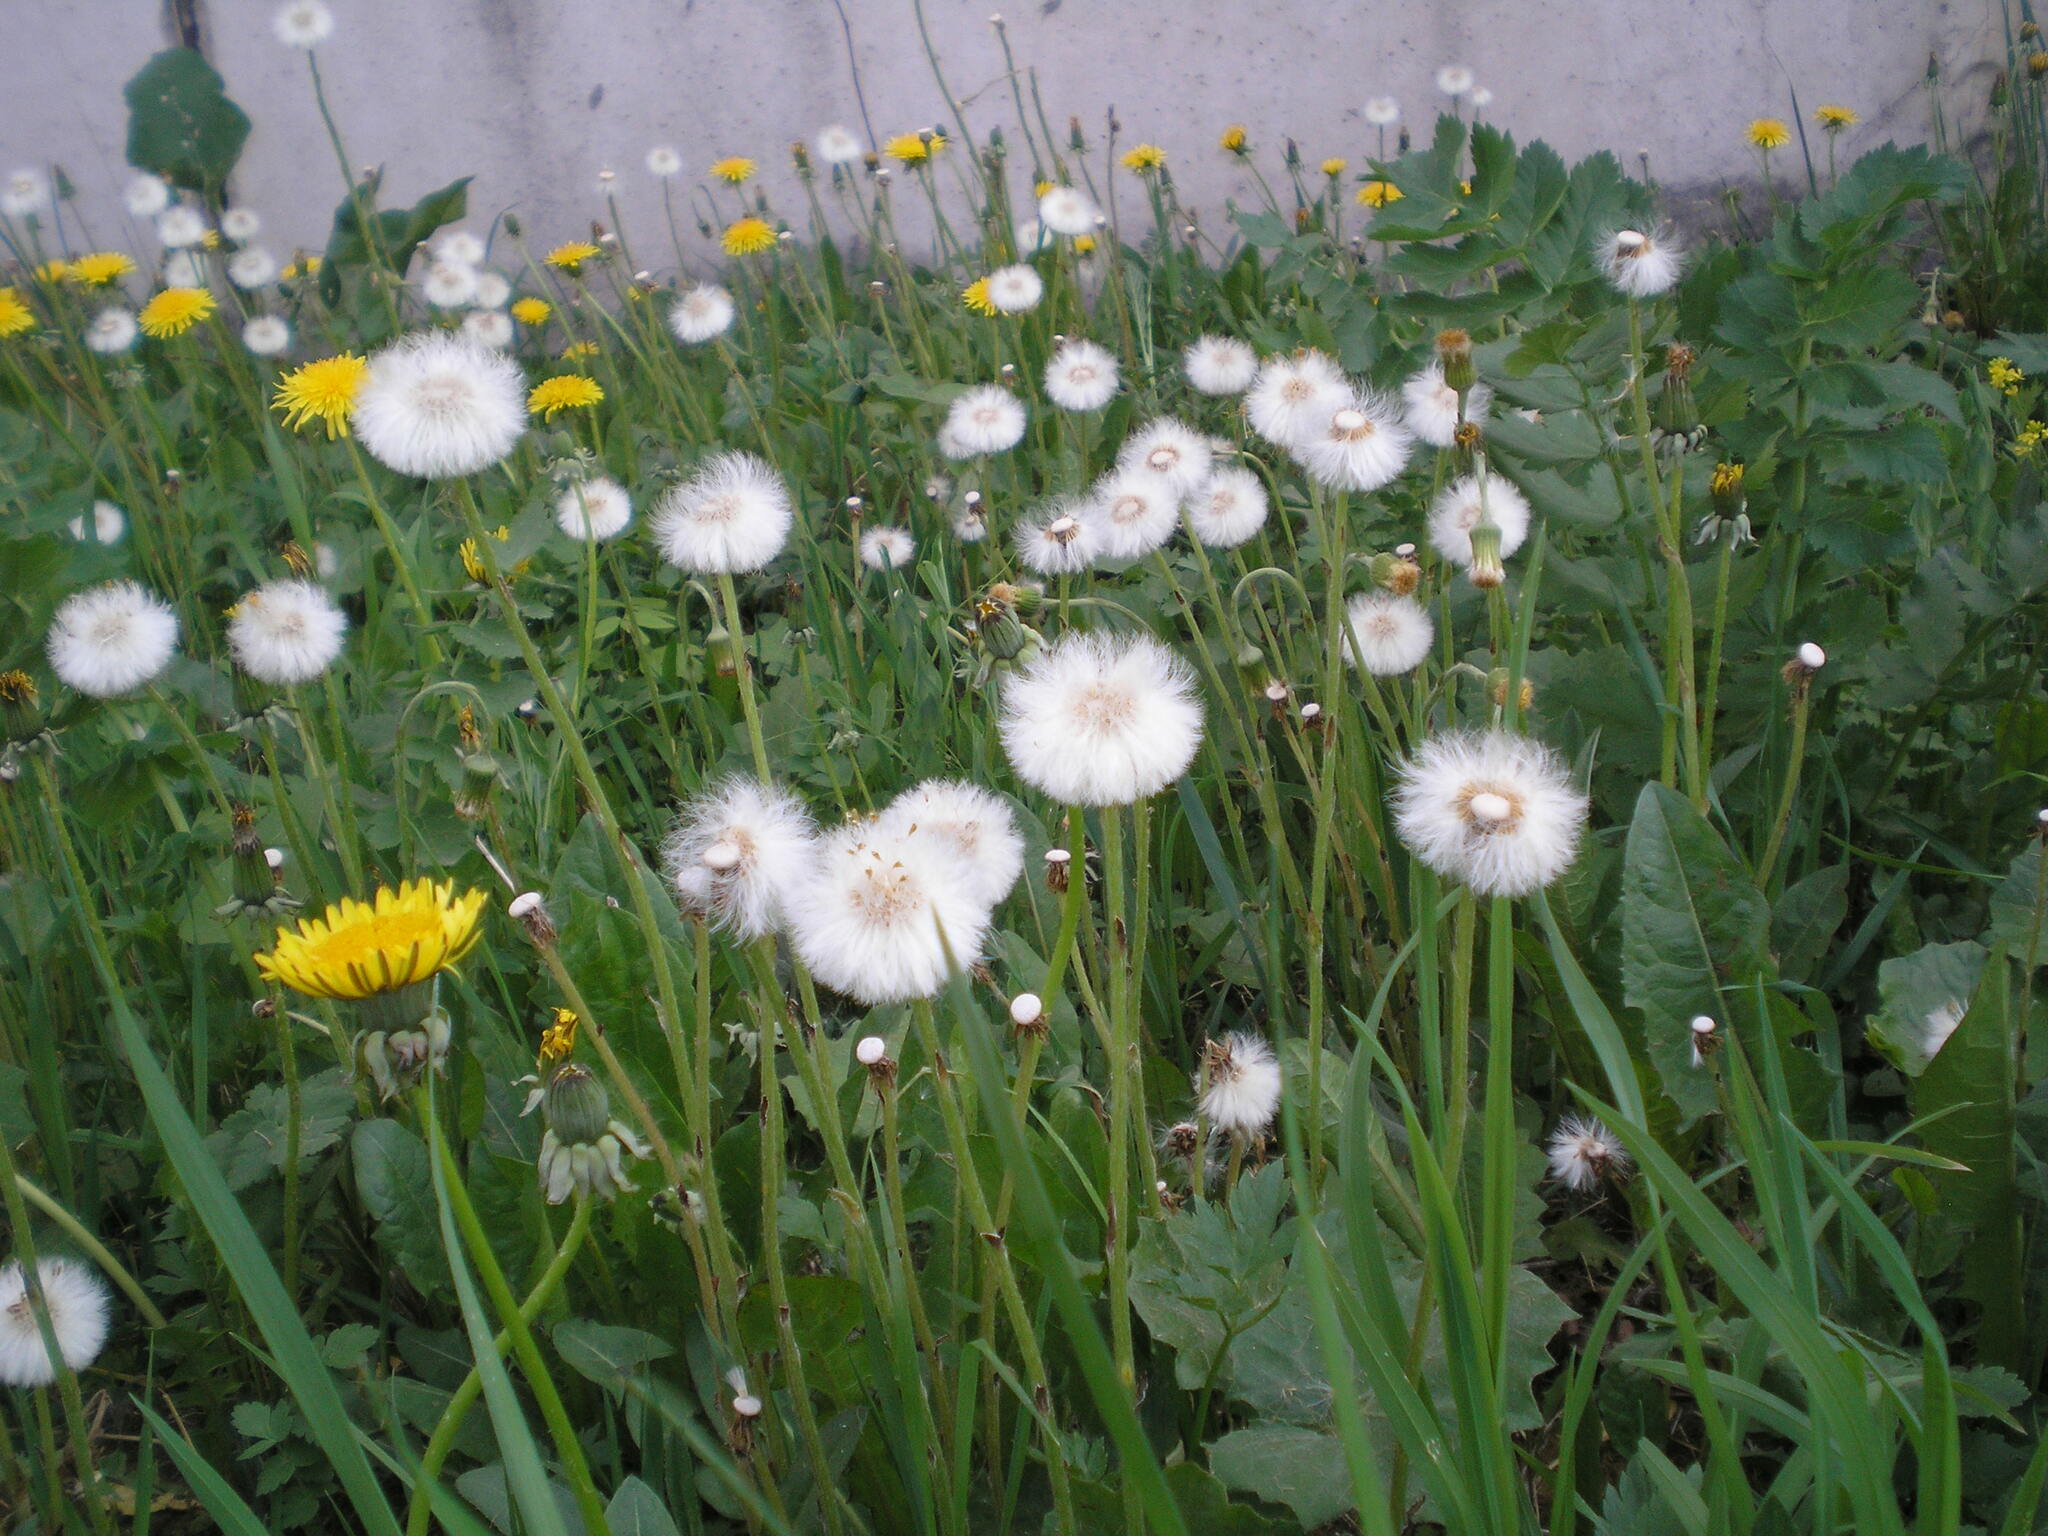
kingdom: Plantae
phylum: Tracheophyta
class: Magnoliopsida
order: Asterales
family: Asteraceae
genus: Tussilago
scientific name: Tussilago farfara
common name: Coltsfoot
